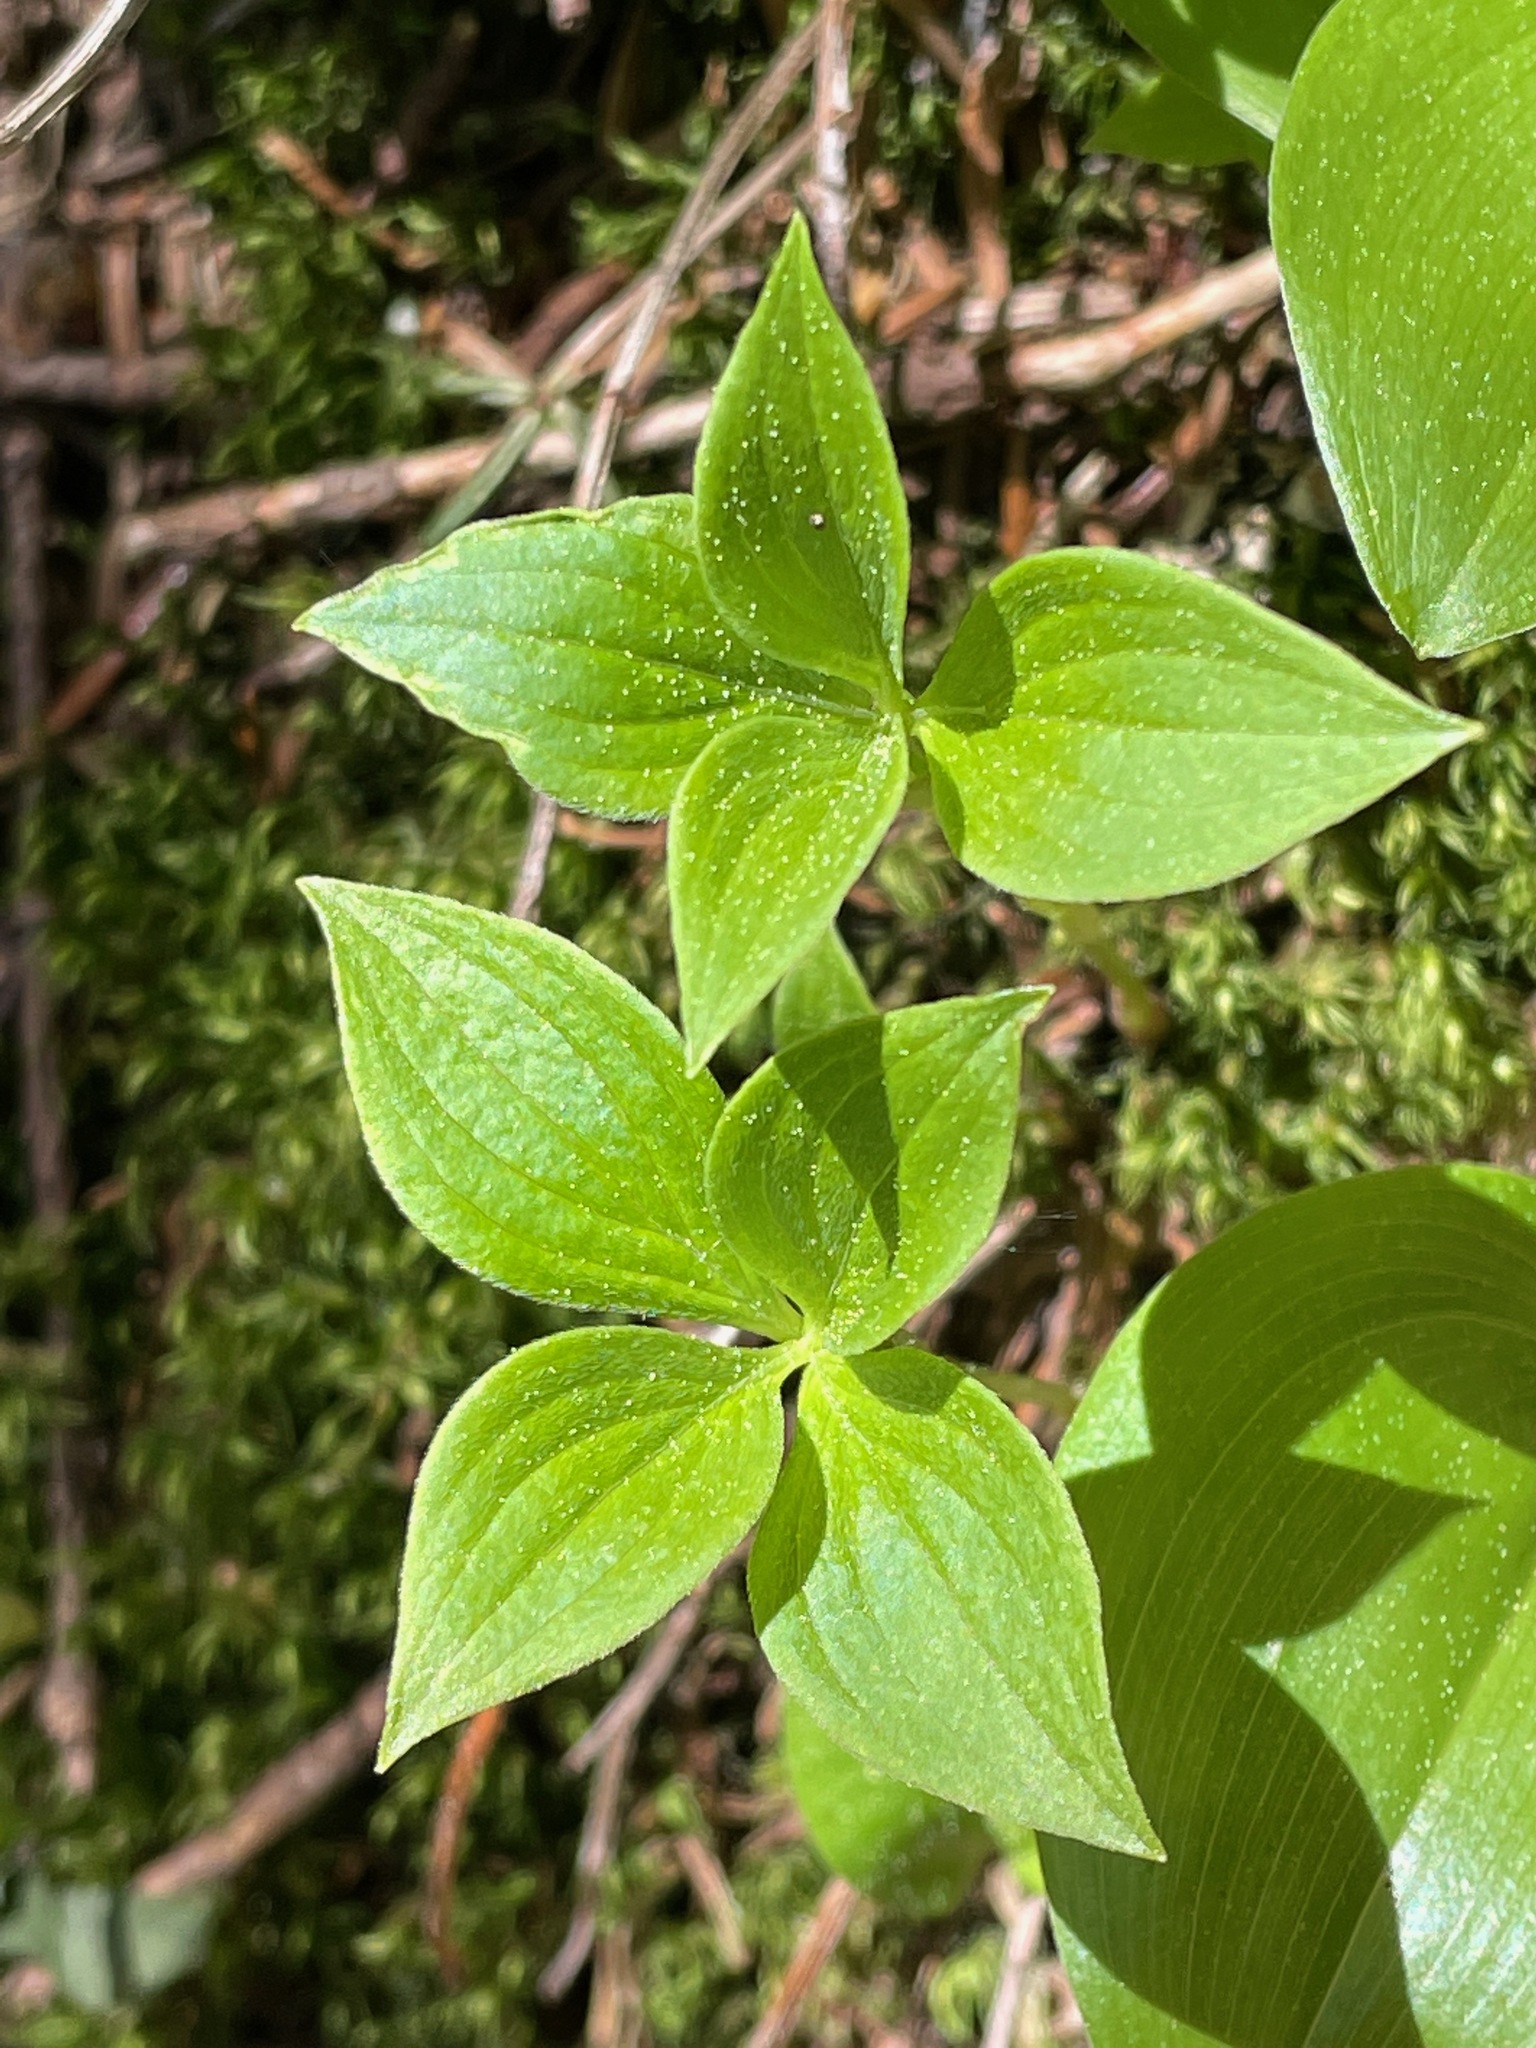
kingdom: Plantae
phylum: Tracheophyta
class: Magnoliopsida
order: Cornales
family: Cornaceae
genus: Cornus
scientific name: Cornus canadensis
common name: Creeping dogwood
